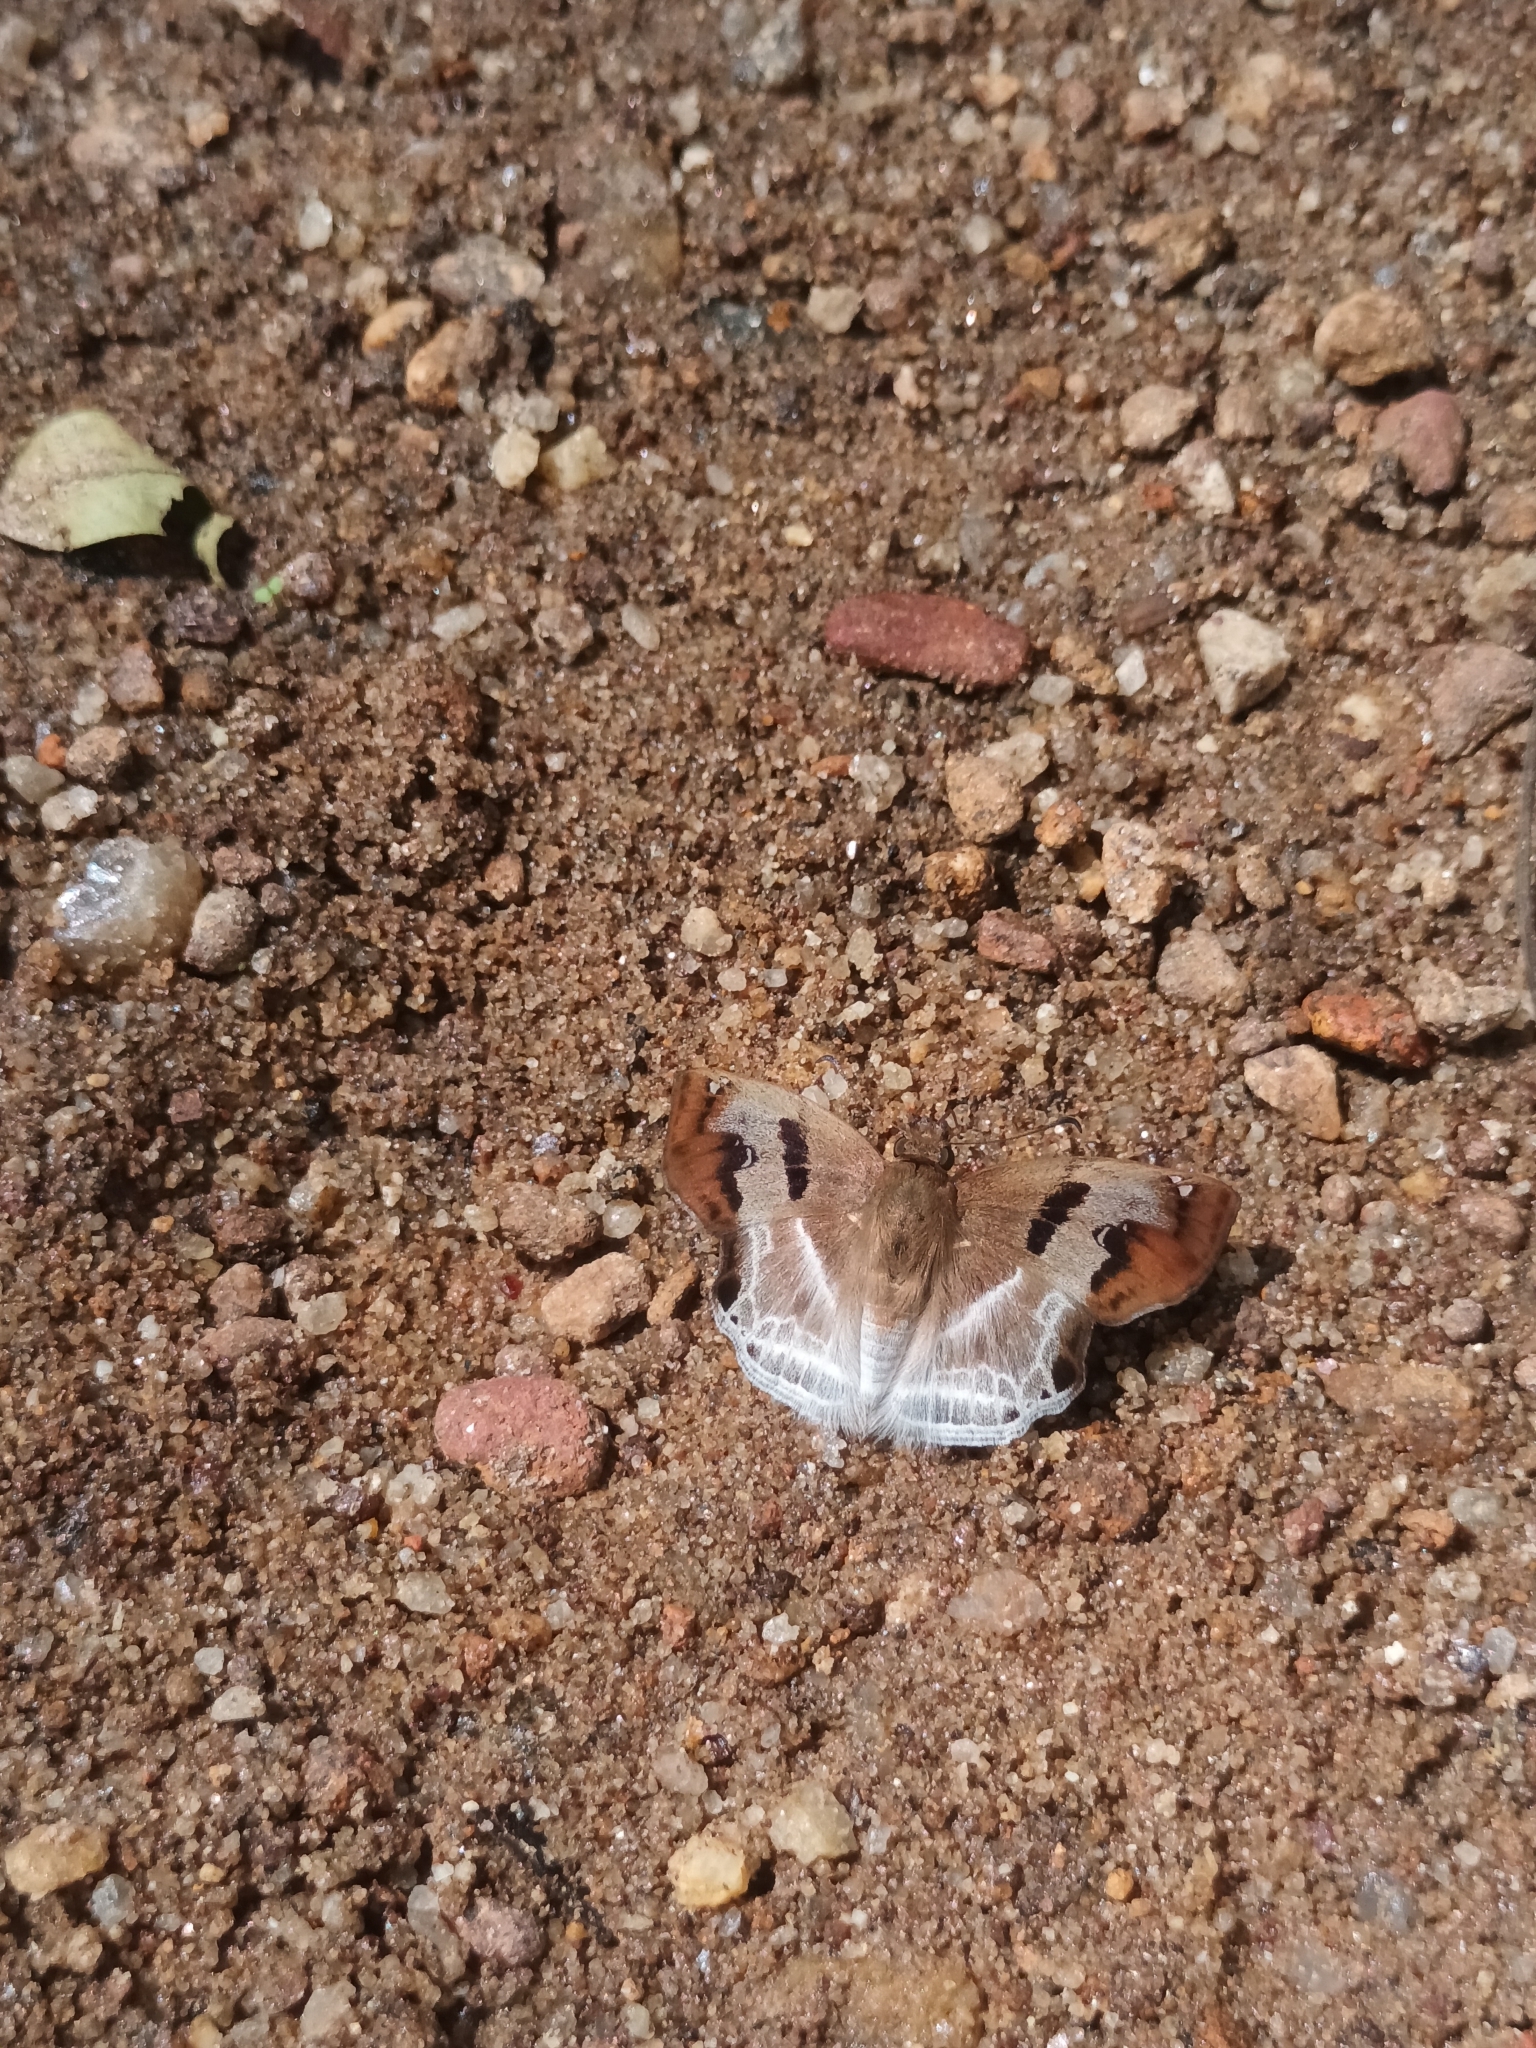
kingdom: Animalia
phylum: Arthropoda
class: Insecta
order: Lepidoptera
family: Hesperiidae
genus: Odontoptilum
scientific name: Odontoptilum angulata
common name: Chestnut banded angle
